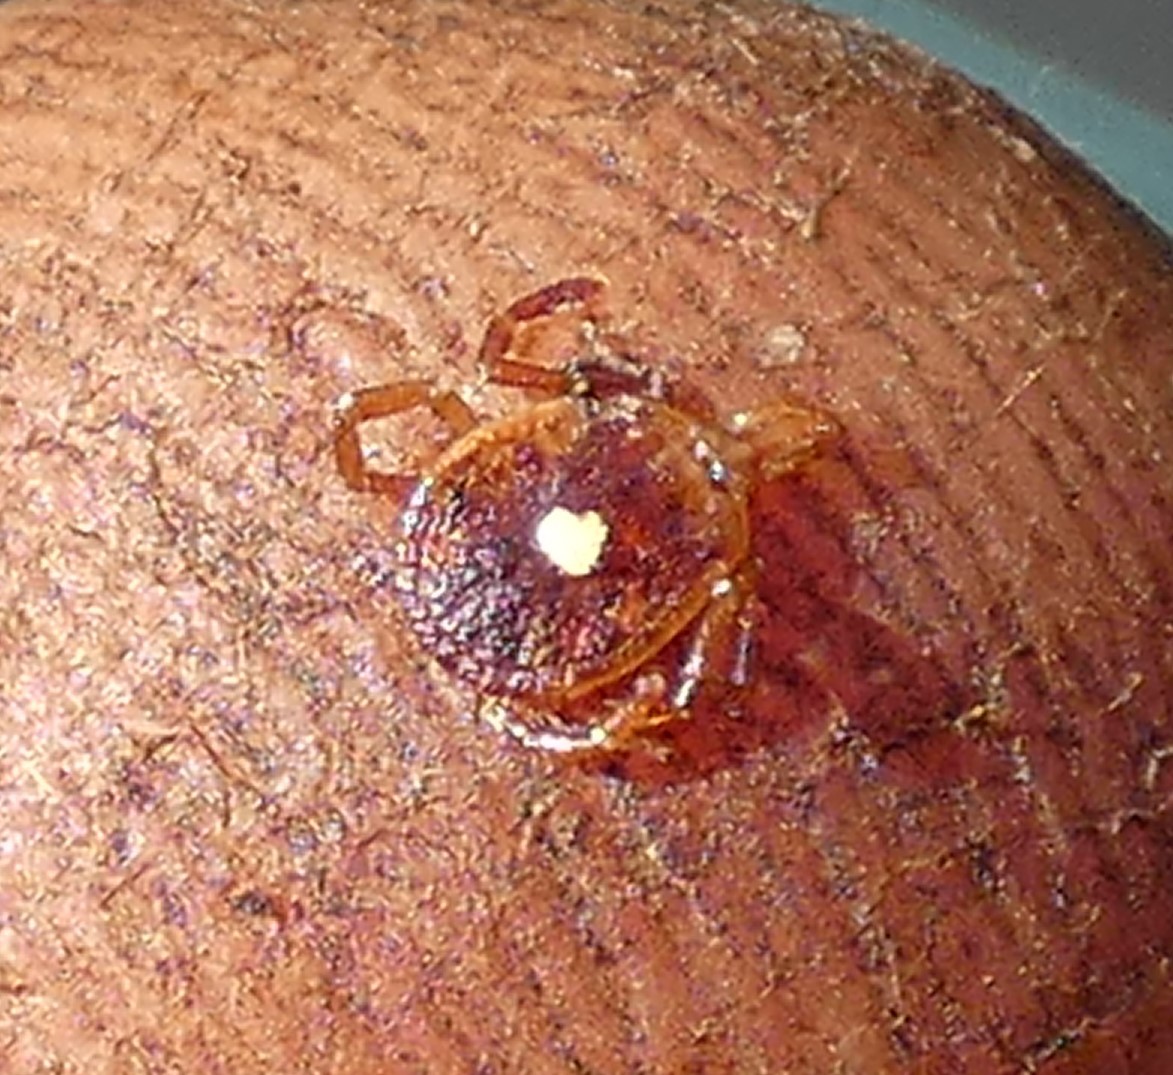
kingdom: Animalia
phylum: Arthropoda
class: Arachnida
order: Ixodida
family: Ixodidae
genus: Amblyomma
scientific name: Amblyomma americanum
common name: Lone star tick
